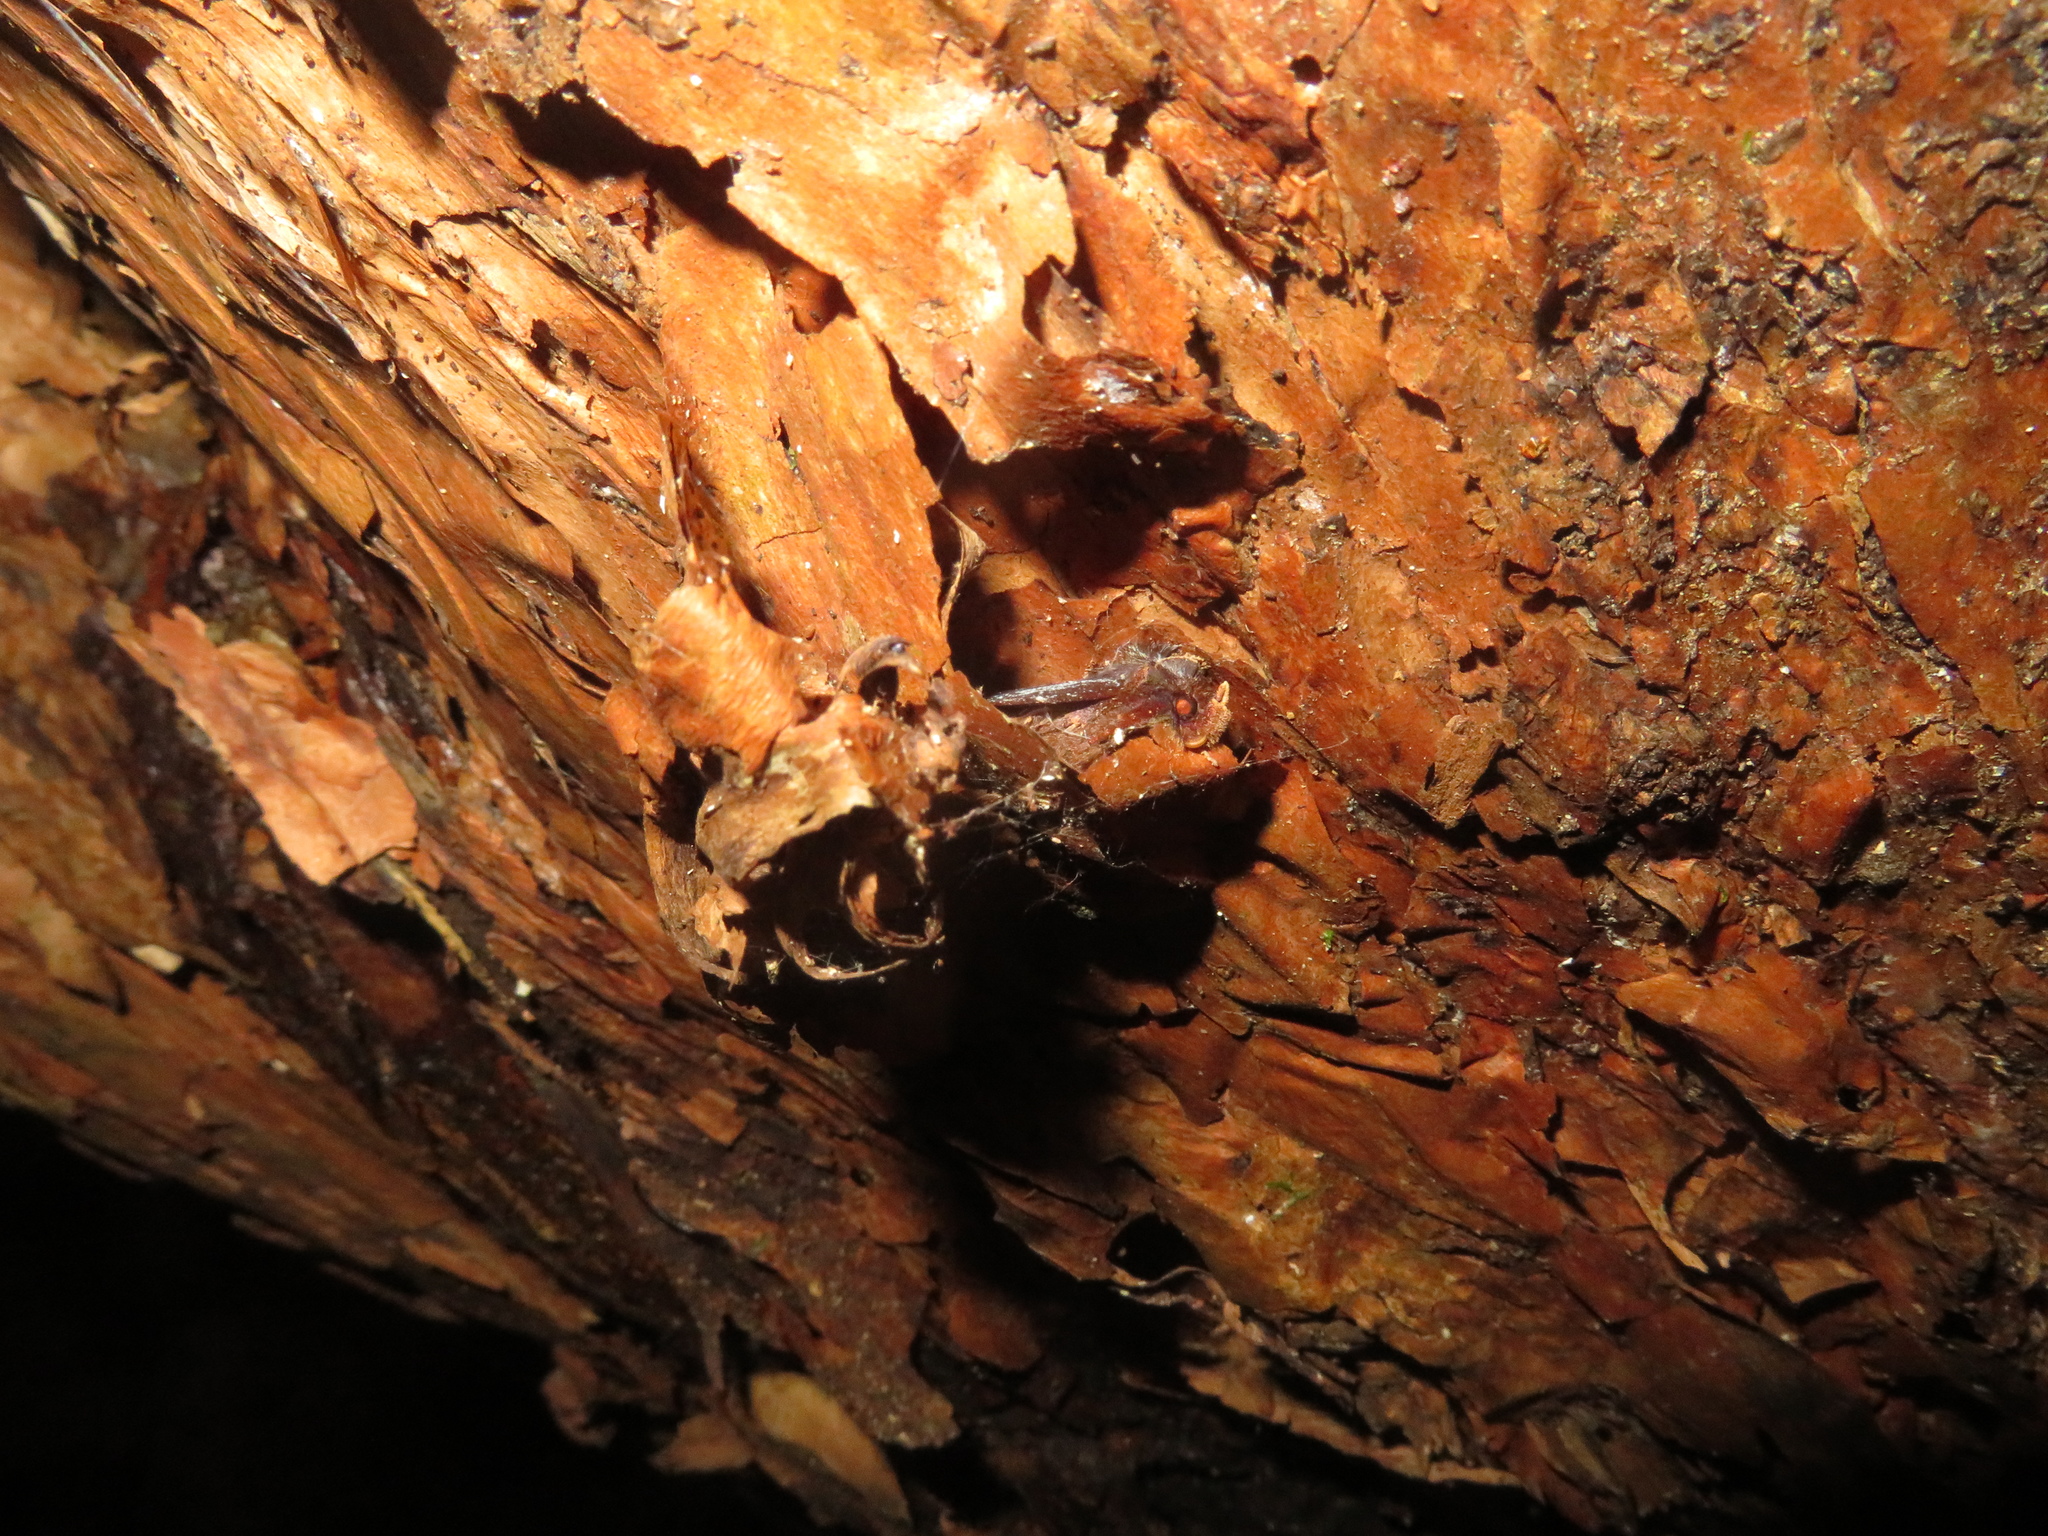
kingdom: Animalia
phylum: Arthropoda
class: Insecta
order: Lepidoptera
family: Noctuidae
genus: Austramathes
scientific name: Austramathes purpurea
